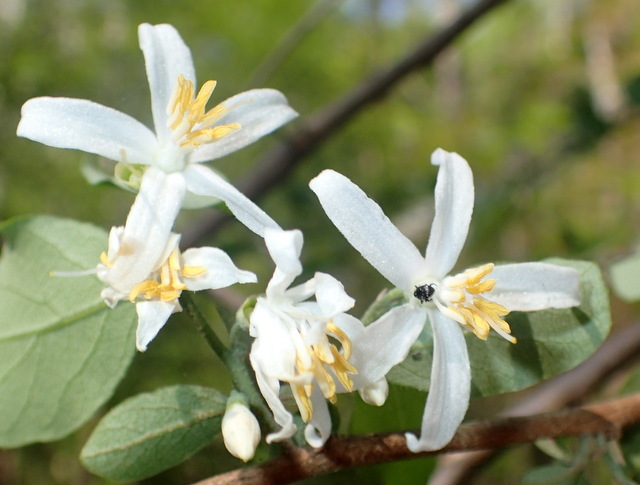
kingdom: Plantae
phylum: Tracheophyta
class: Magnoliopsida
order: Ericales
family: Styracaceae
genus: Styrax
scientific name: Styrax americanus
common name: American snowbell
